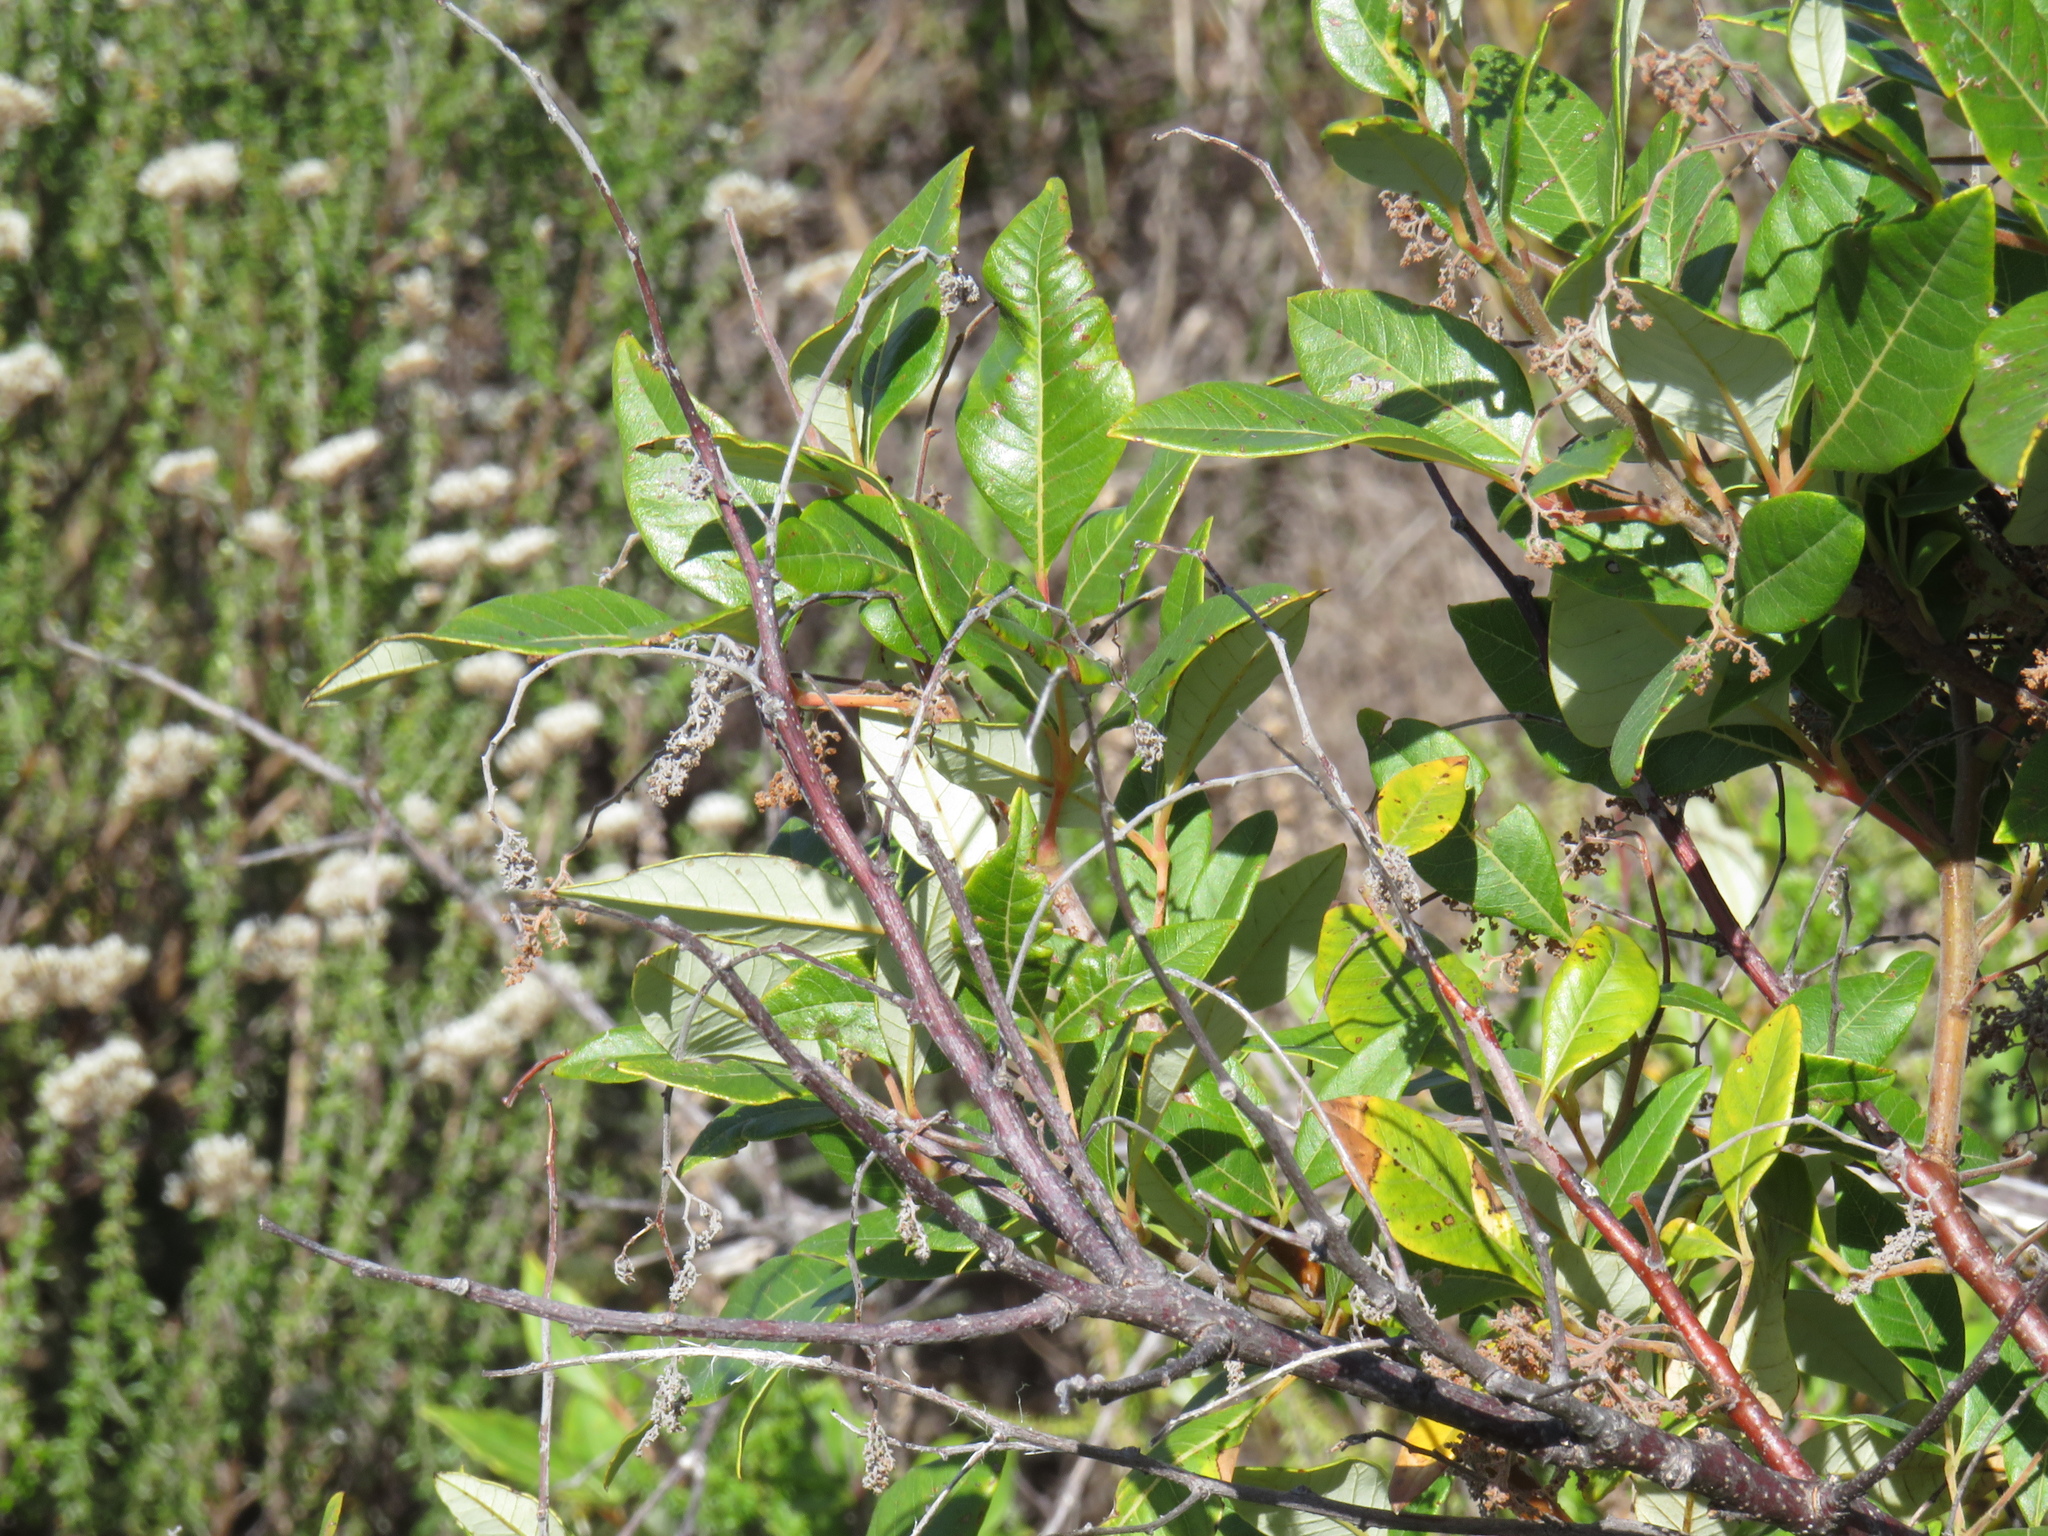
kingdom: Plantae
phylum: Tracheophyta
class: Magnoliopsida
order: Sapindales
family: Anacardiaceae
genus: Searsia
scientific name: Searsia tomentosa
